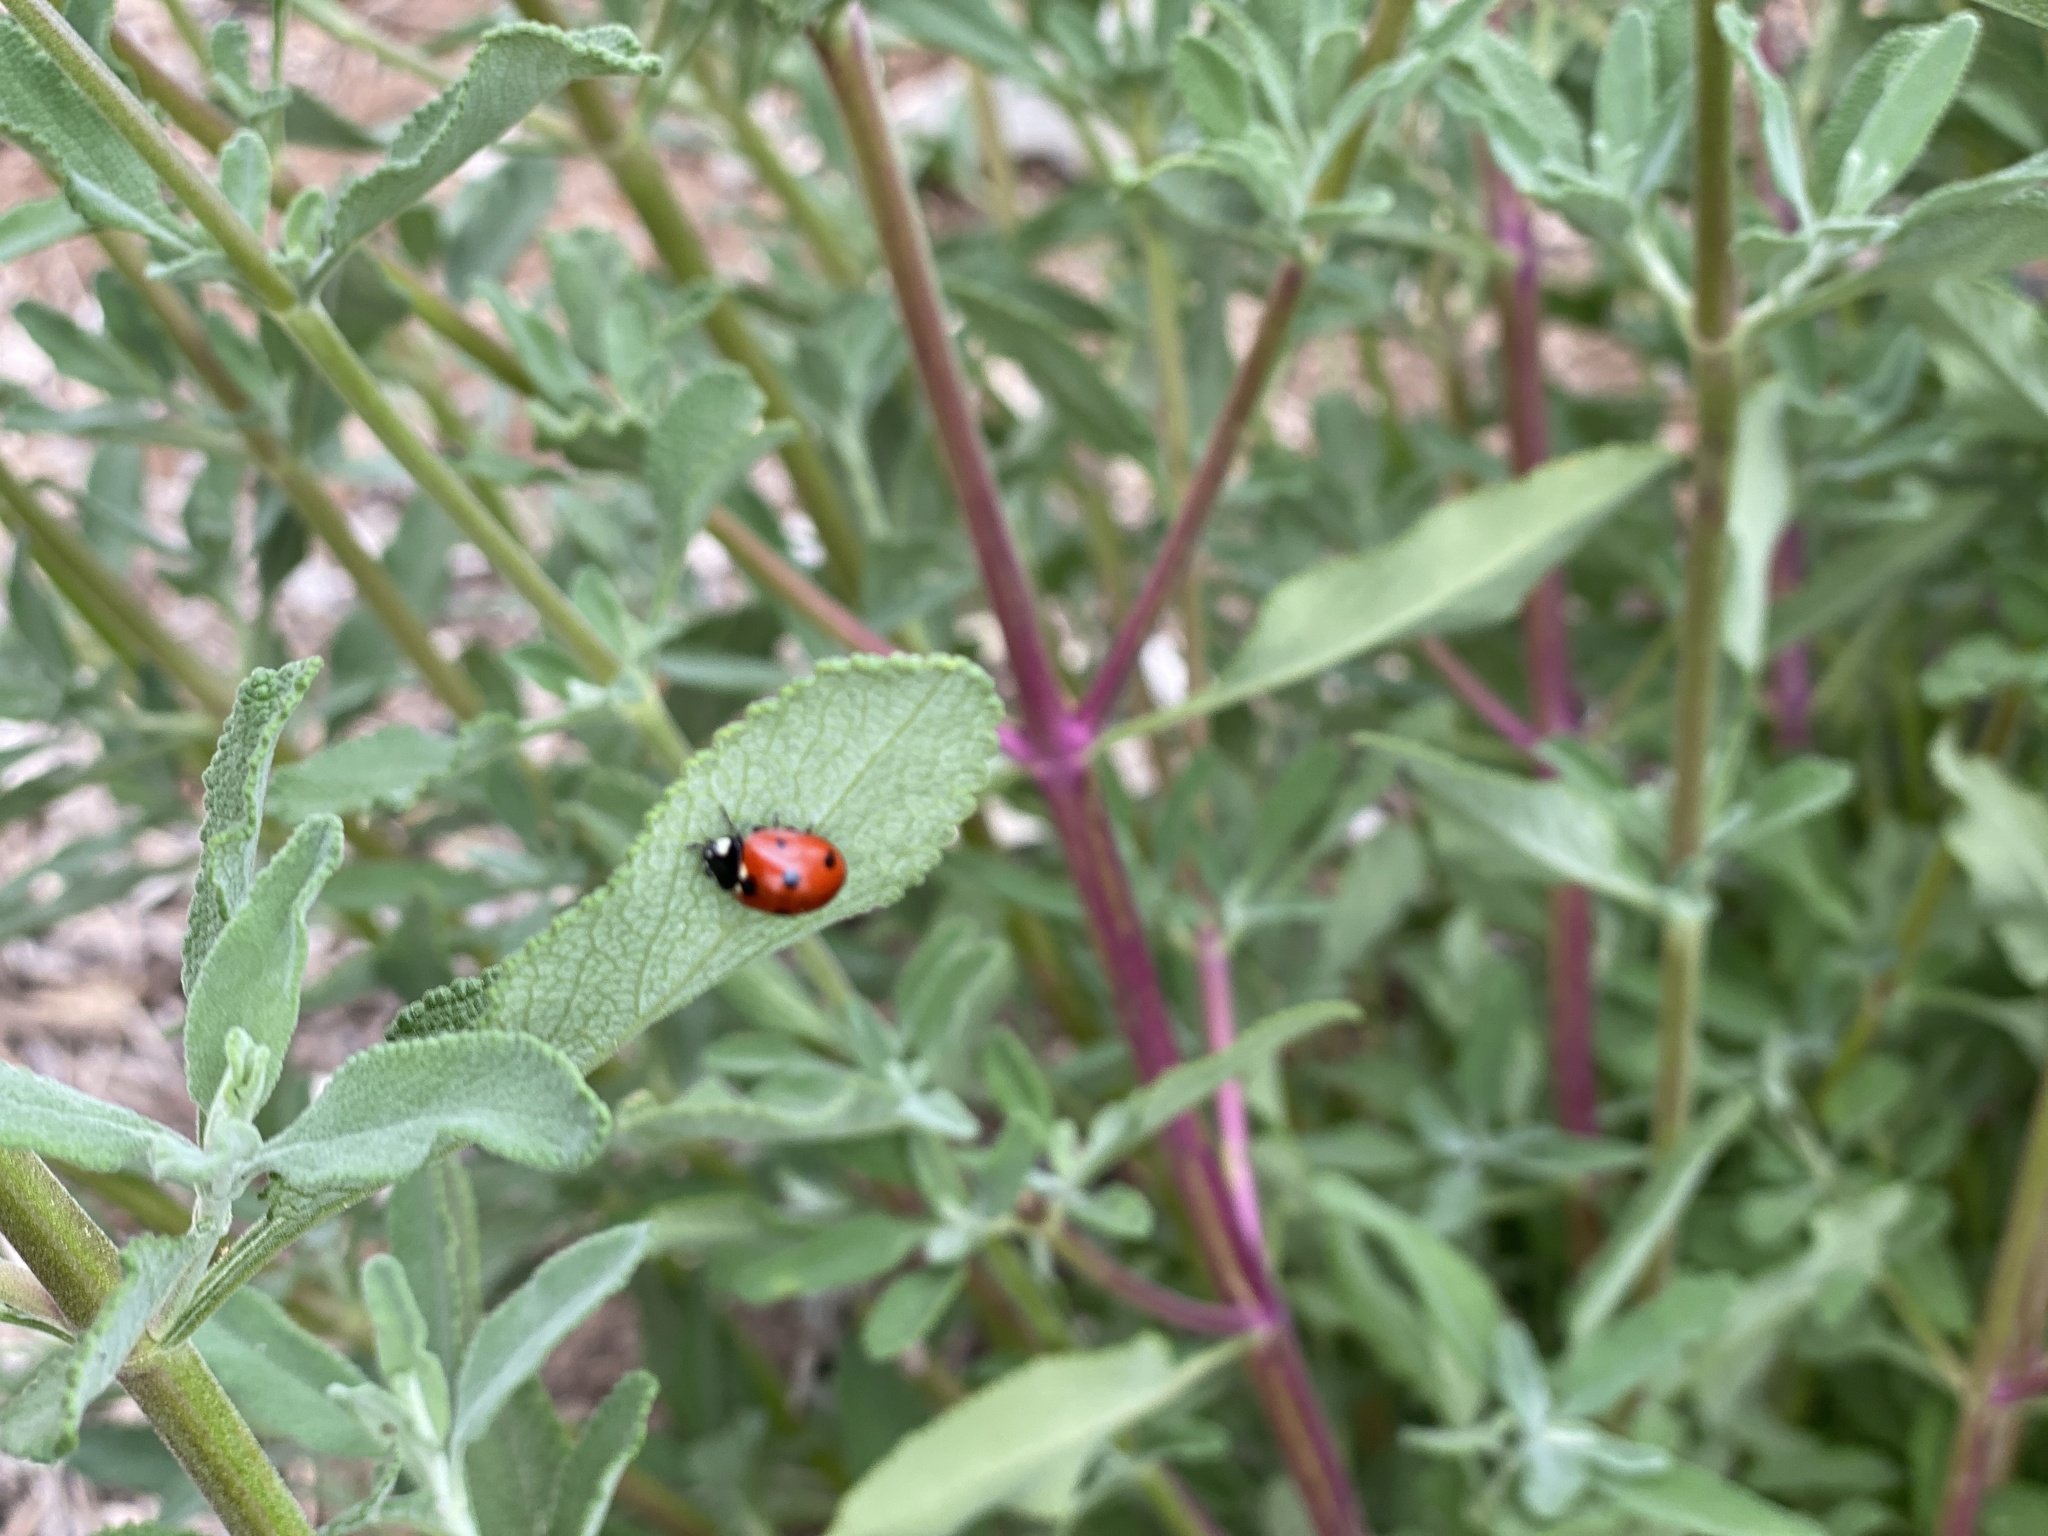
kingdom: Animalia
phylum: Arthropoda
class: Insecta
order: Coleoptera
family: Coccinellidae
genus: Coccinella
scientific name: Coccinella septempunctata
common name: Sevenspotted lady beetle
